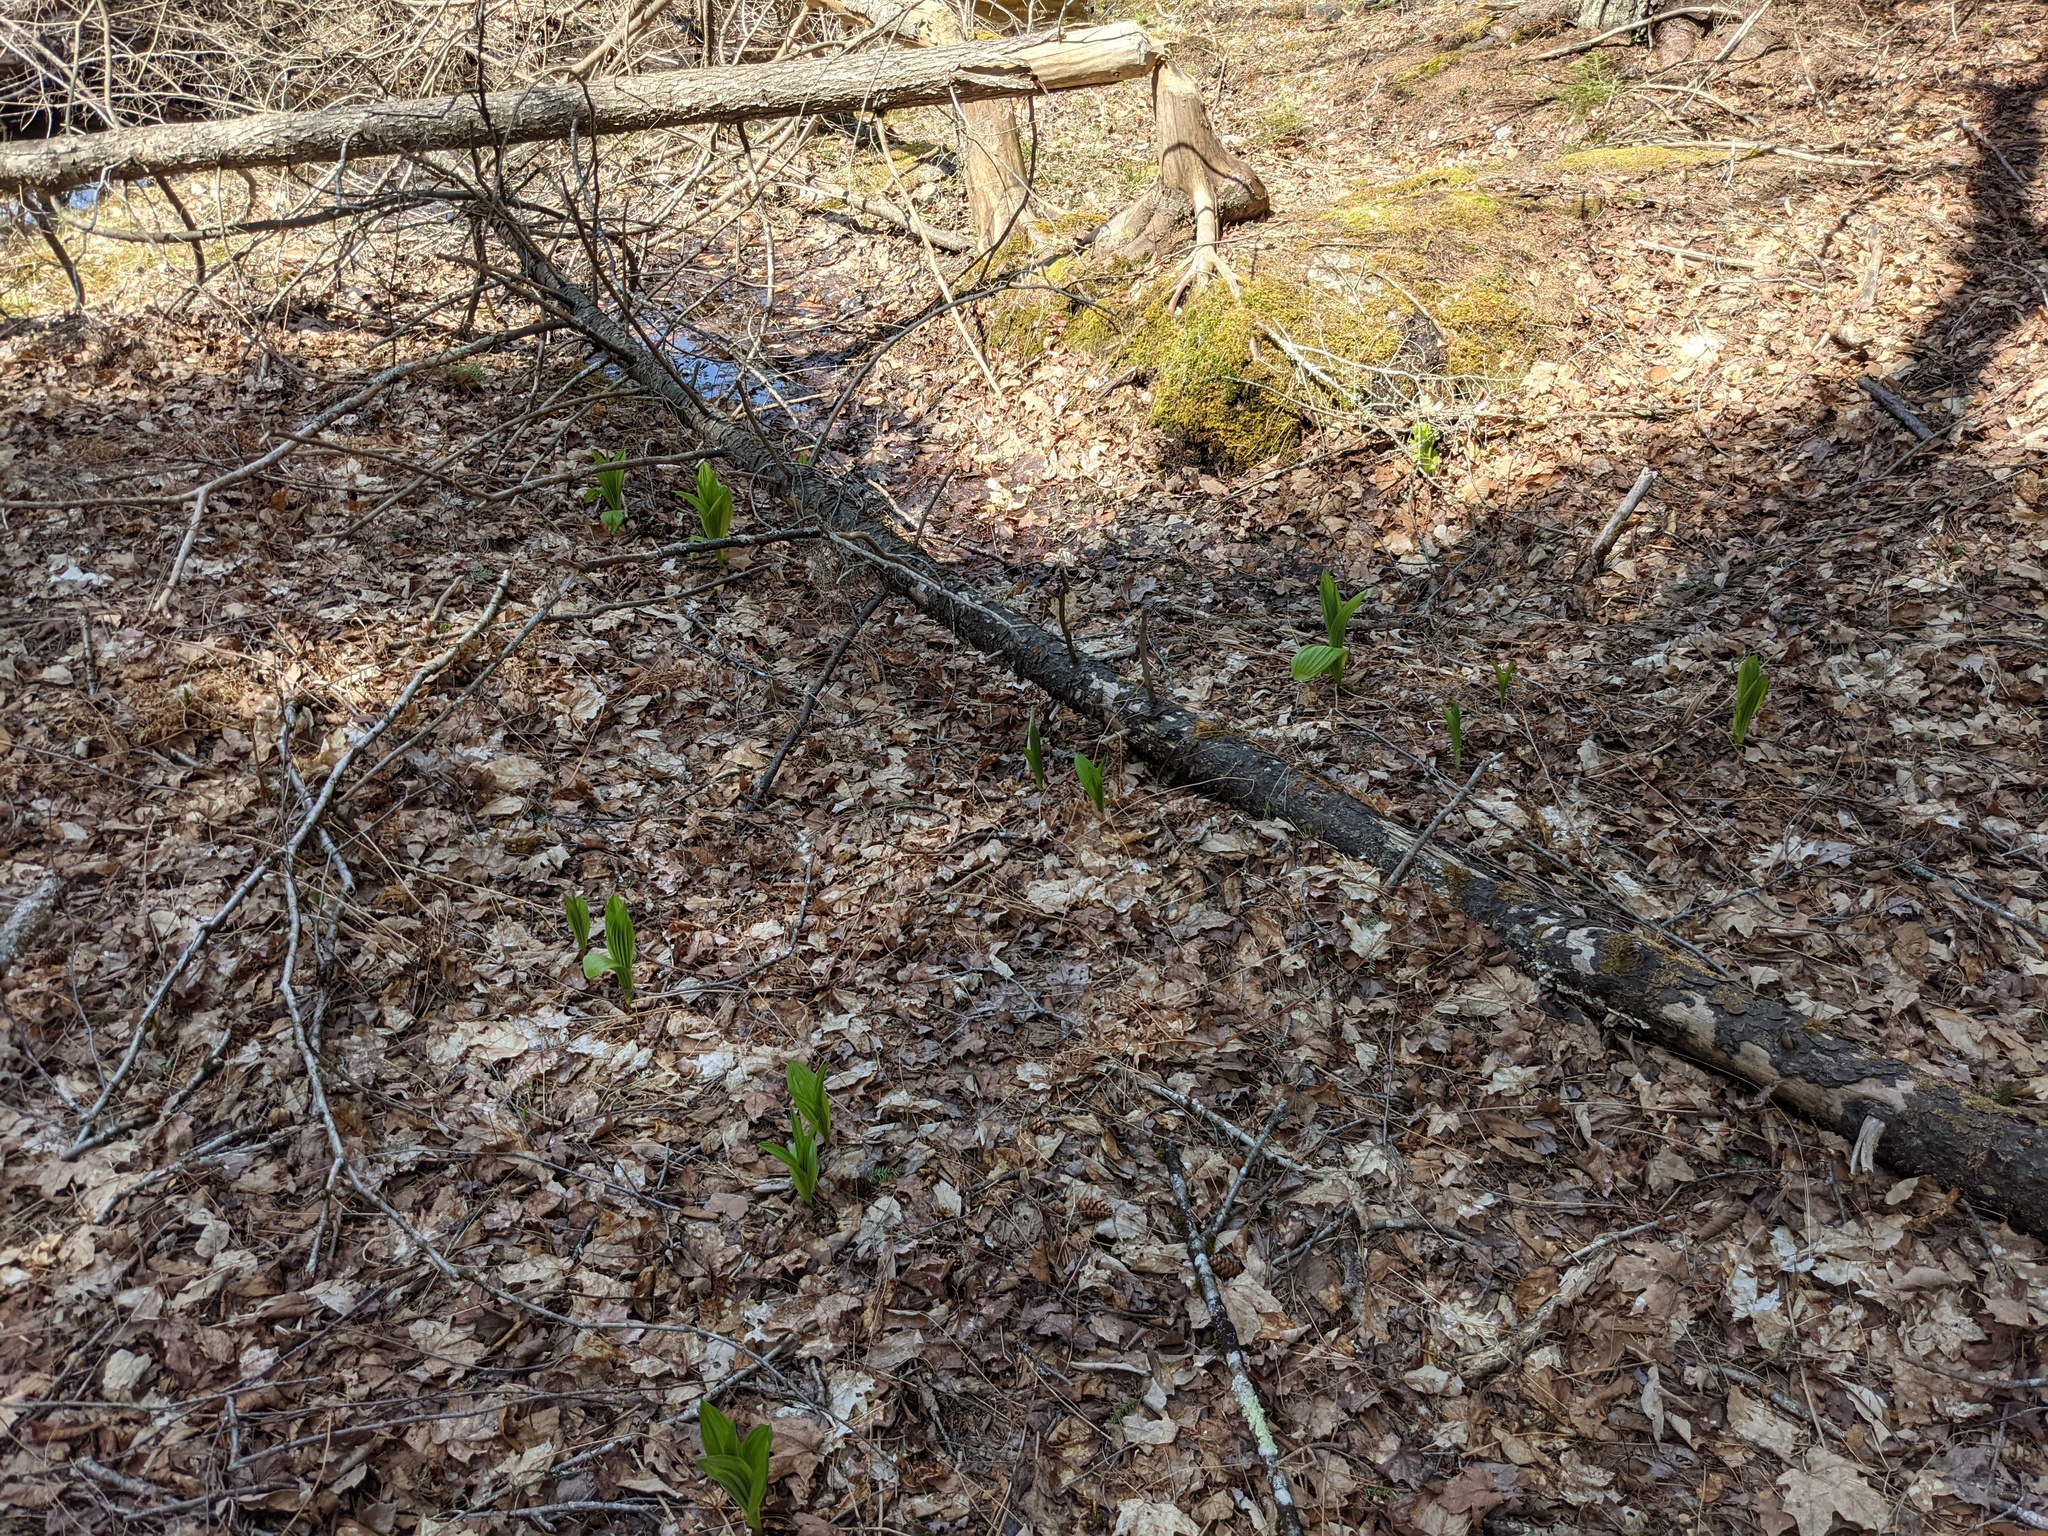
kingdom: Plantae
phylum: Tracheophyta
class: Liliopsida
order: Liliales
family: Melanthiaceae
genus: Veratrum
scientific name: Veratrum viride
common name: American false hellebore
